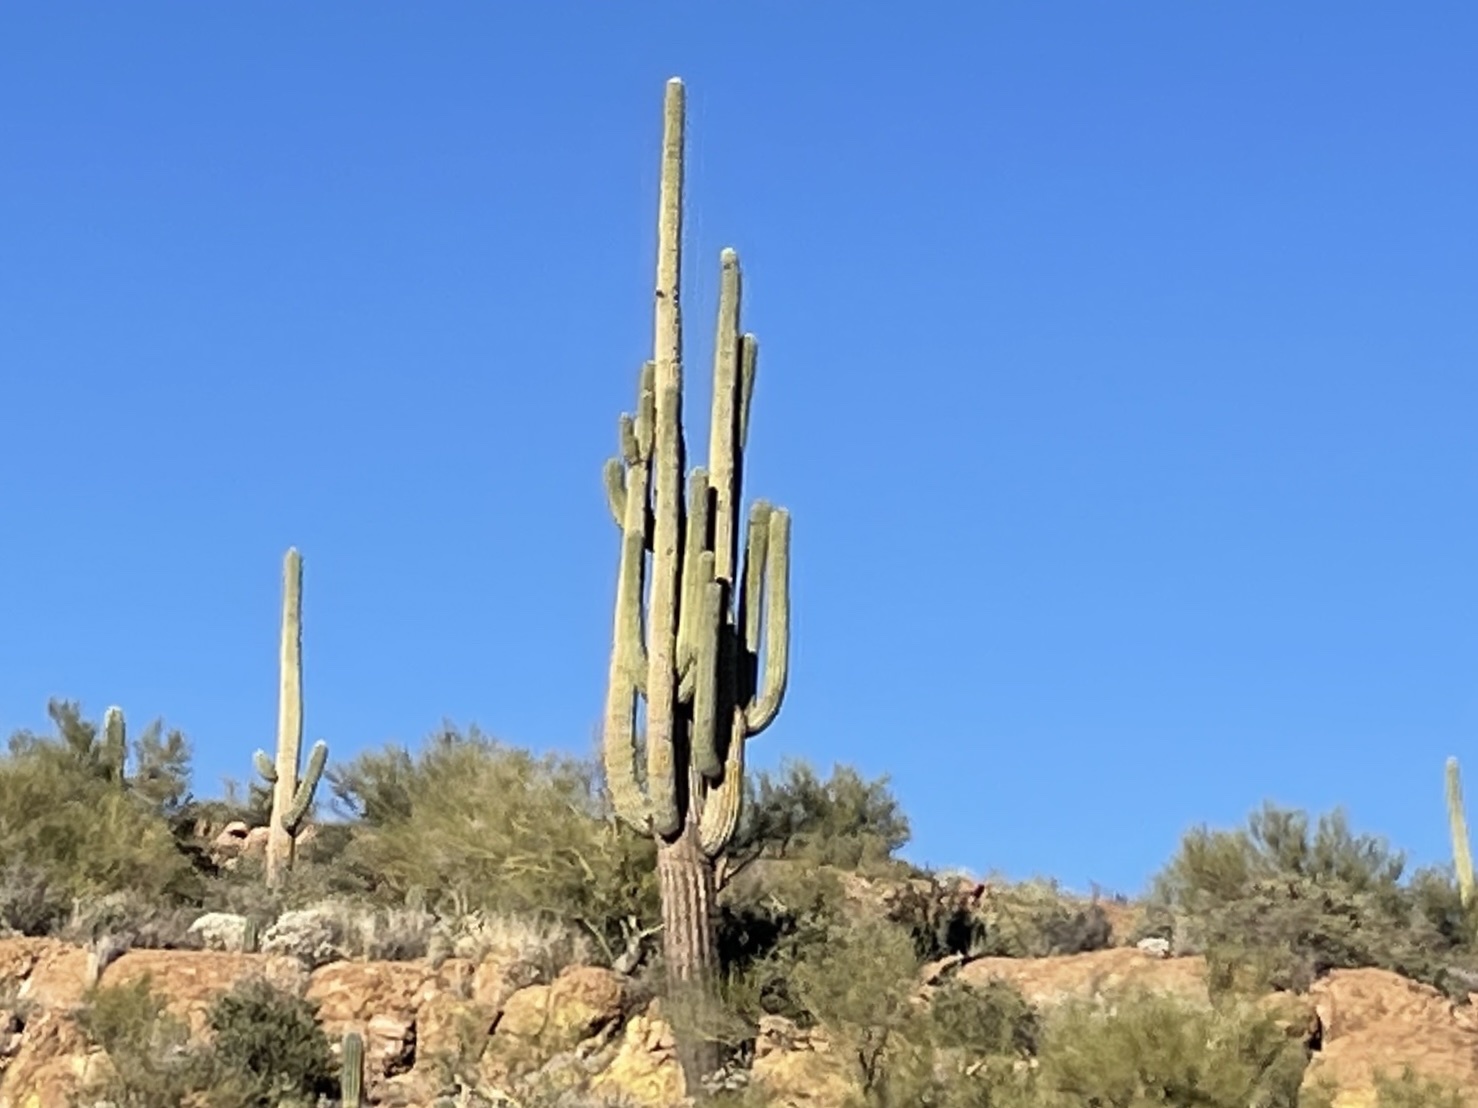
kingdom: Plantae
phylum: Tracheophyta
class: Magnoliopsida
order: Caryophyllales
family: Cactaceae
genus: Carnegiea
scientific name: Carnegiea gigantea
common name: Saguaro
